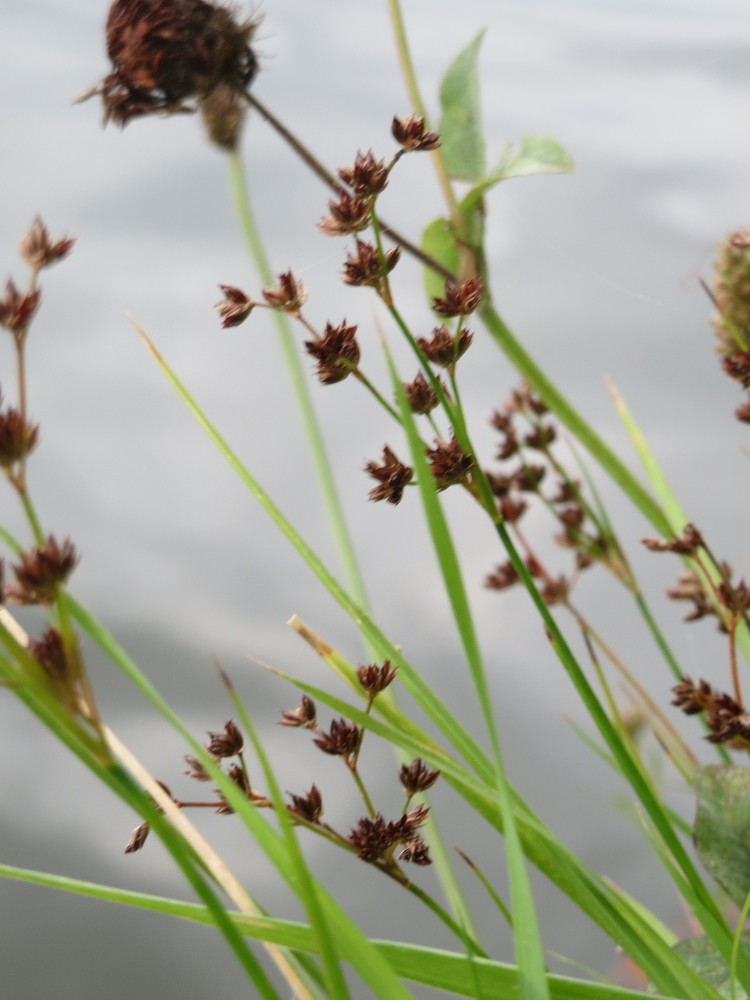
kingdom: Plantae
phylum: Tracheophyta
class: Liliopsida
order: Poales
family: Juncaceae
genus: Juncus
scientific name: Juncus articulatus
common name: Jointed rush
